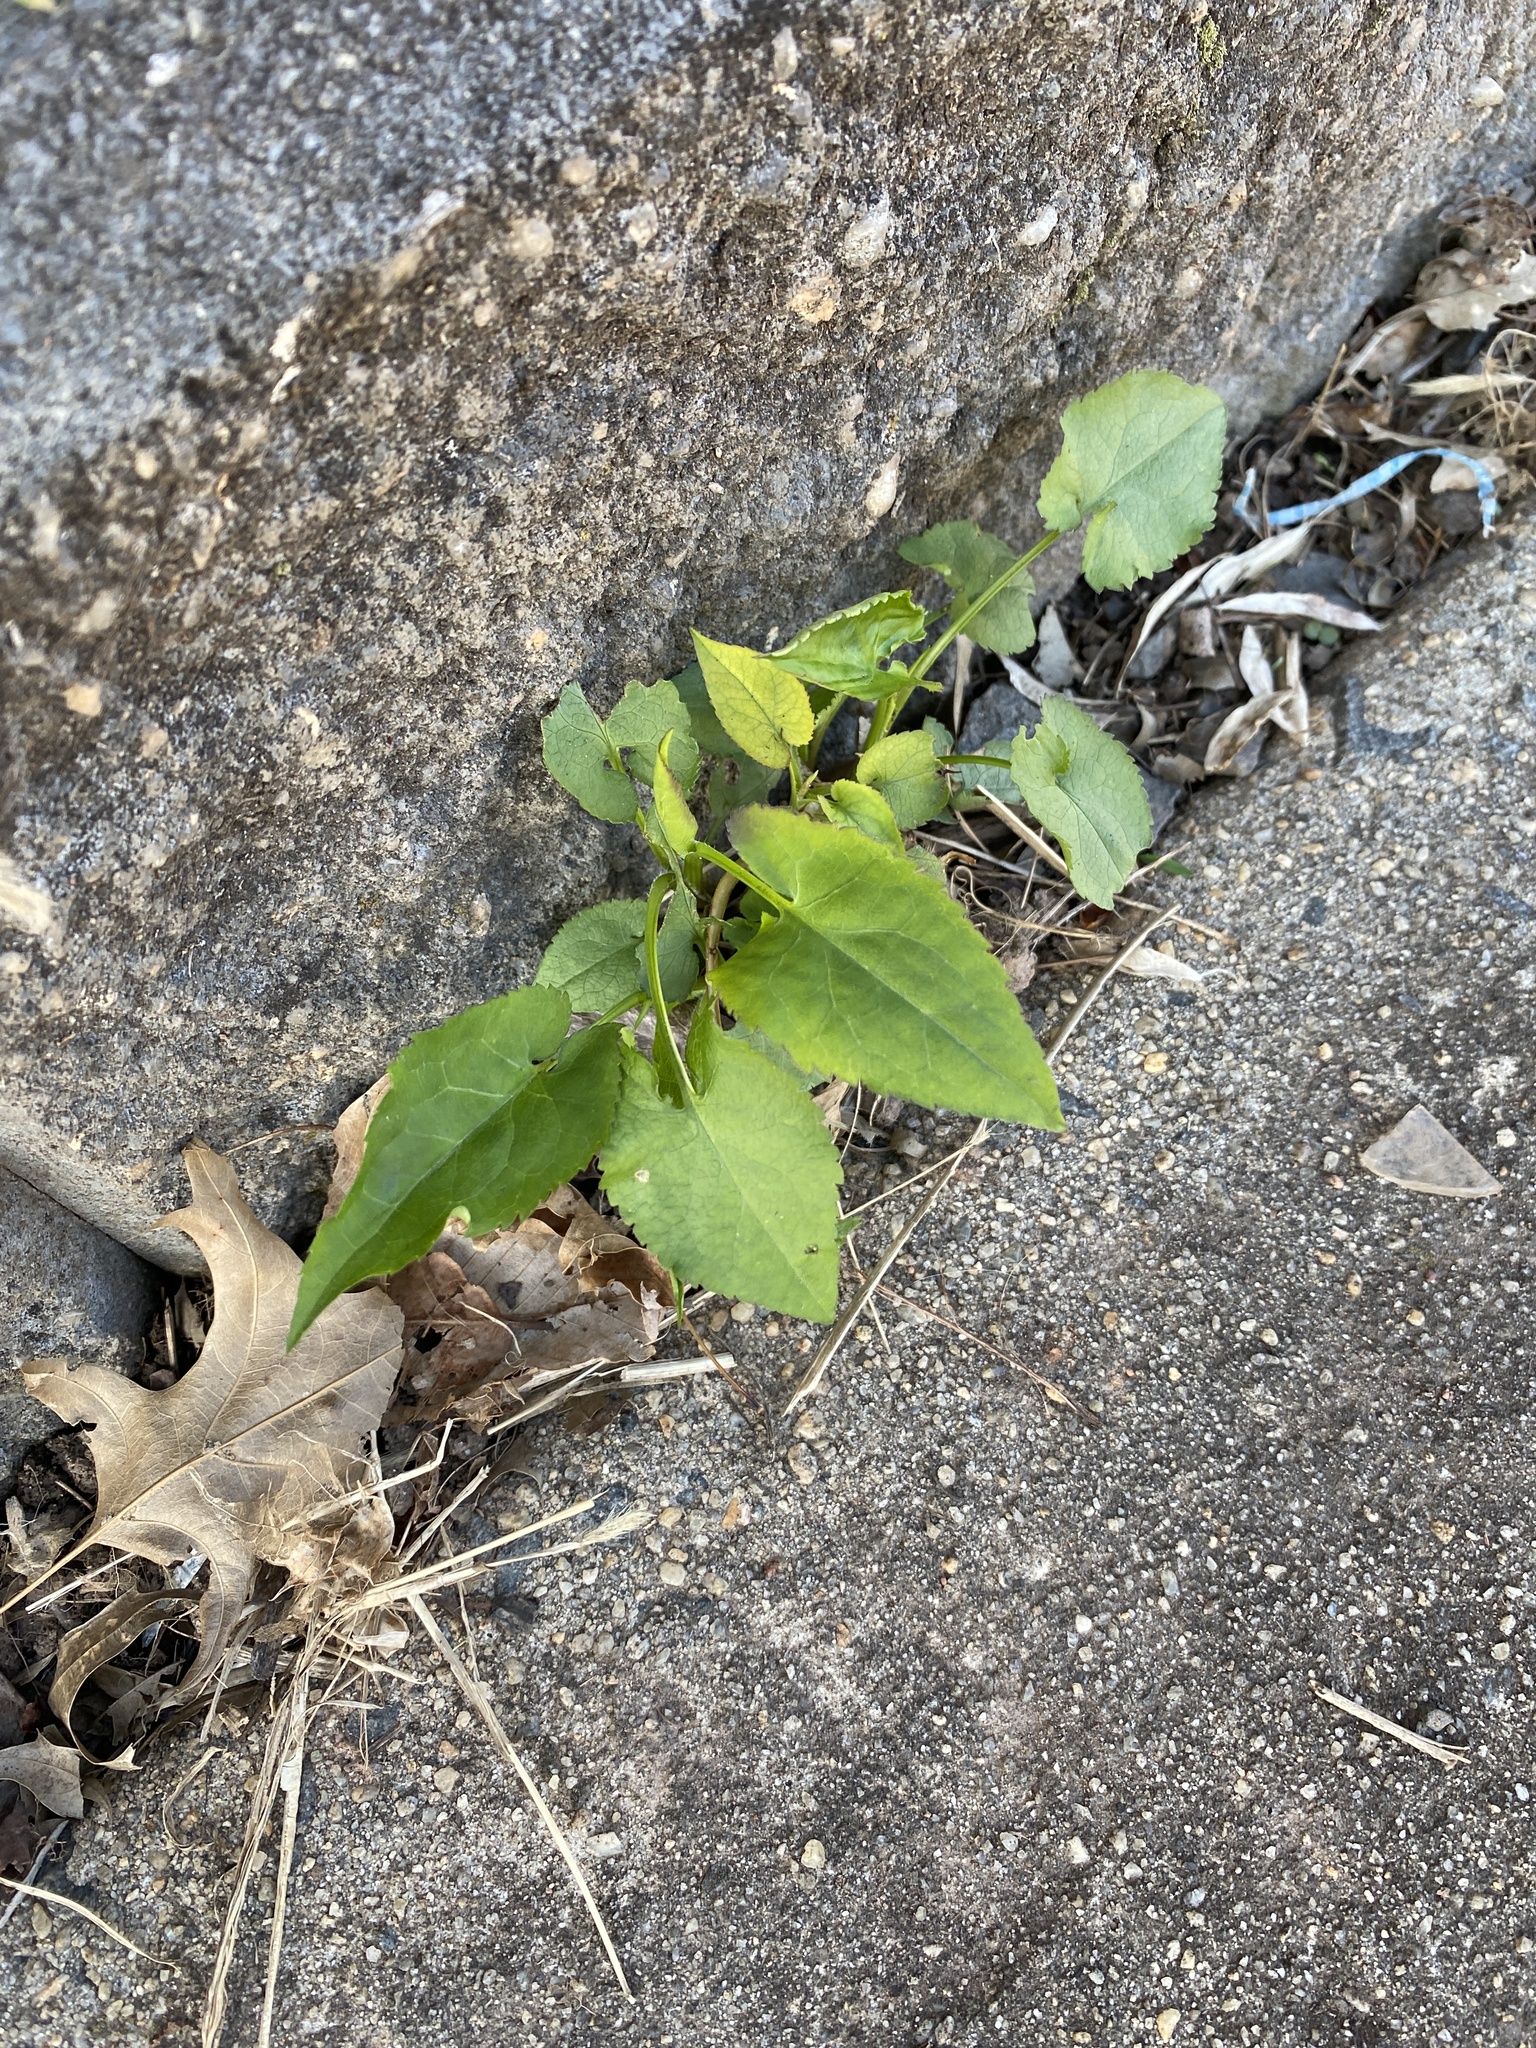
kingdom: Plantae
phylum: Tracheophyta
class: Magnoliopsida
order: Asterales
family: Asteraceae
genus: Symphyotrichum
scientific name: Symphyotrichum cordifolium
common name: Beeweed
